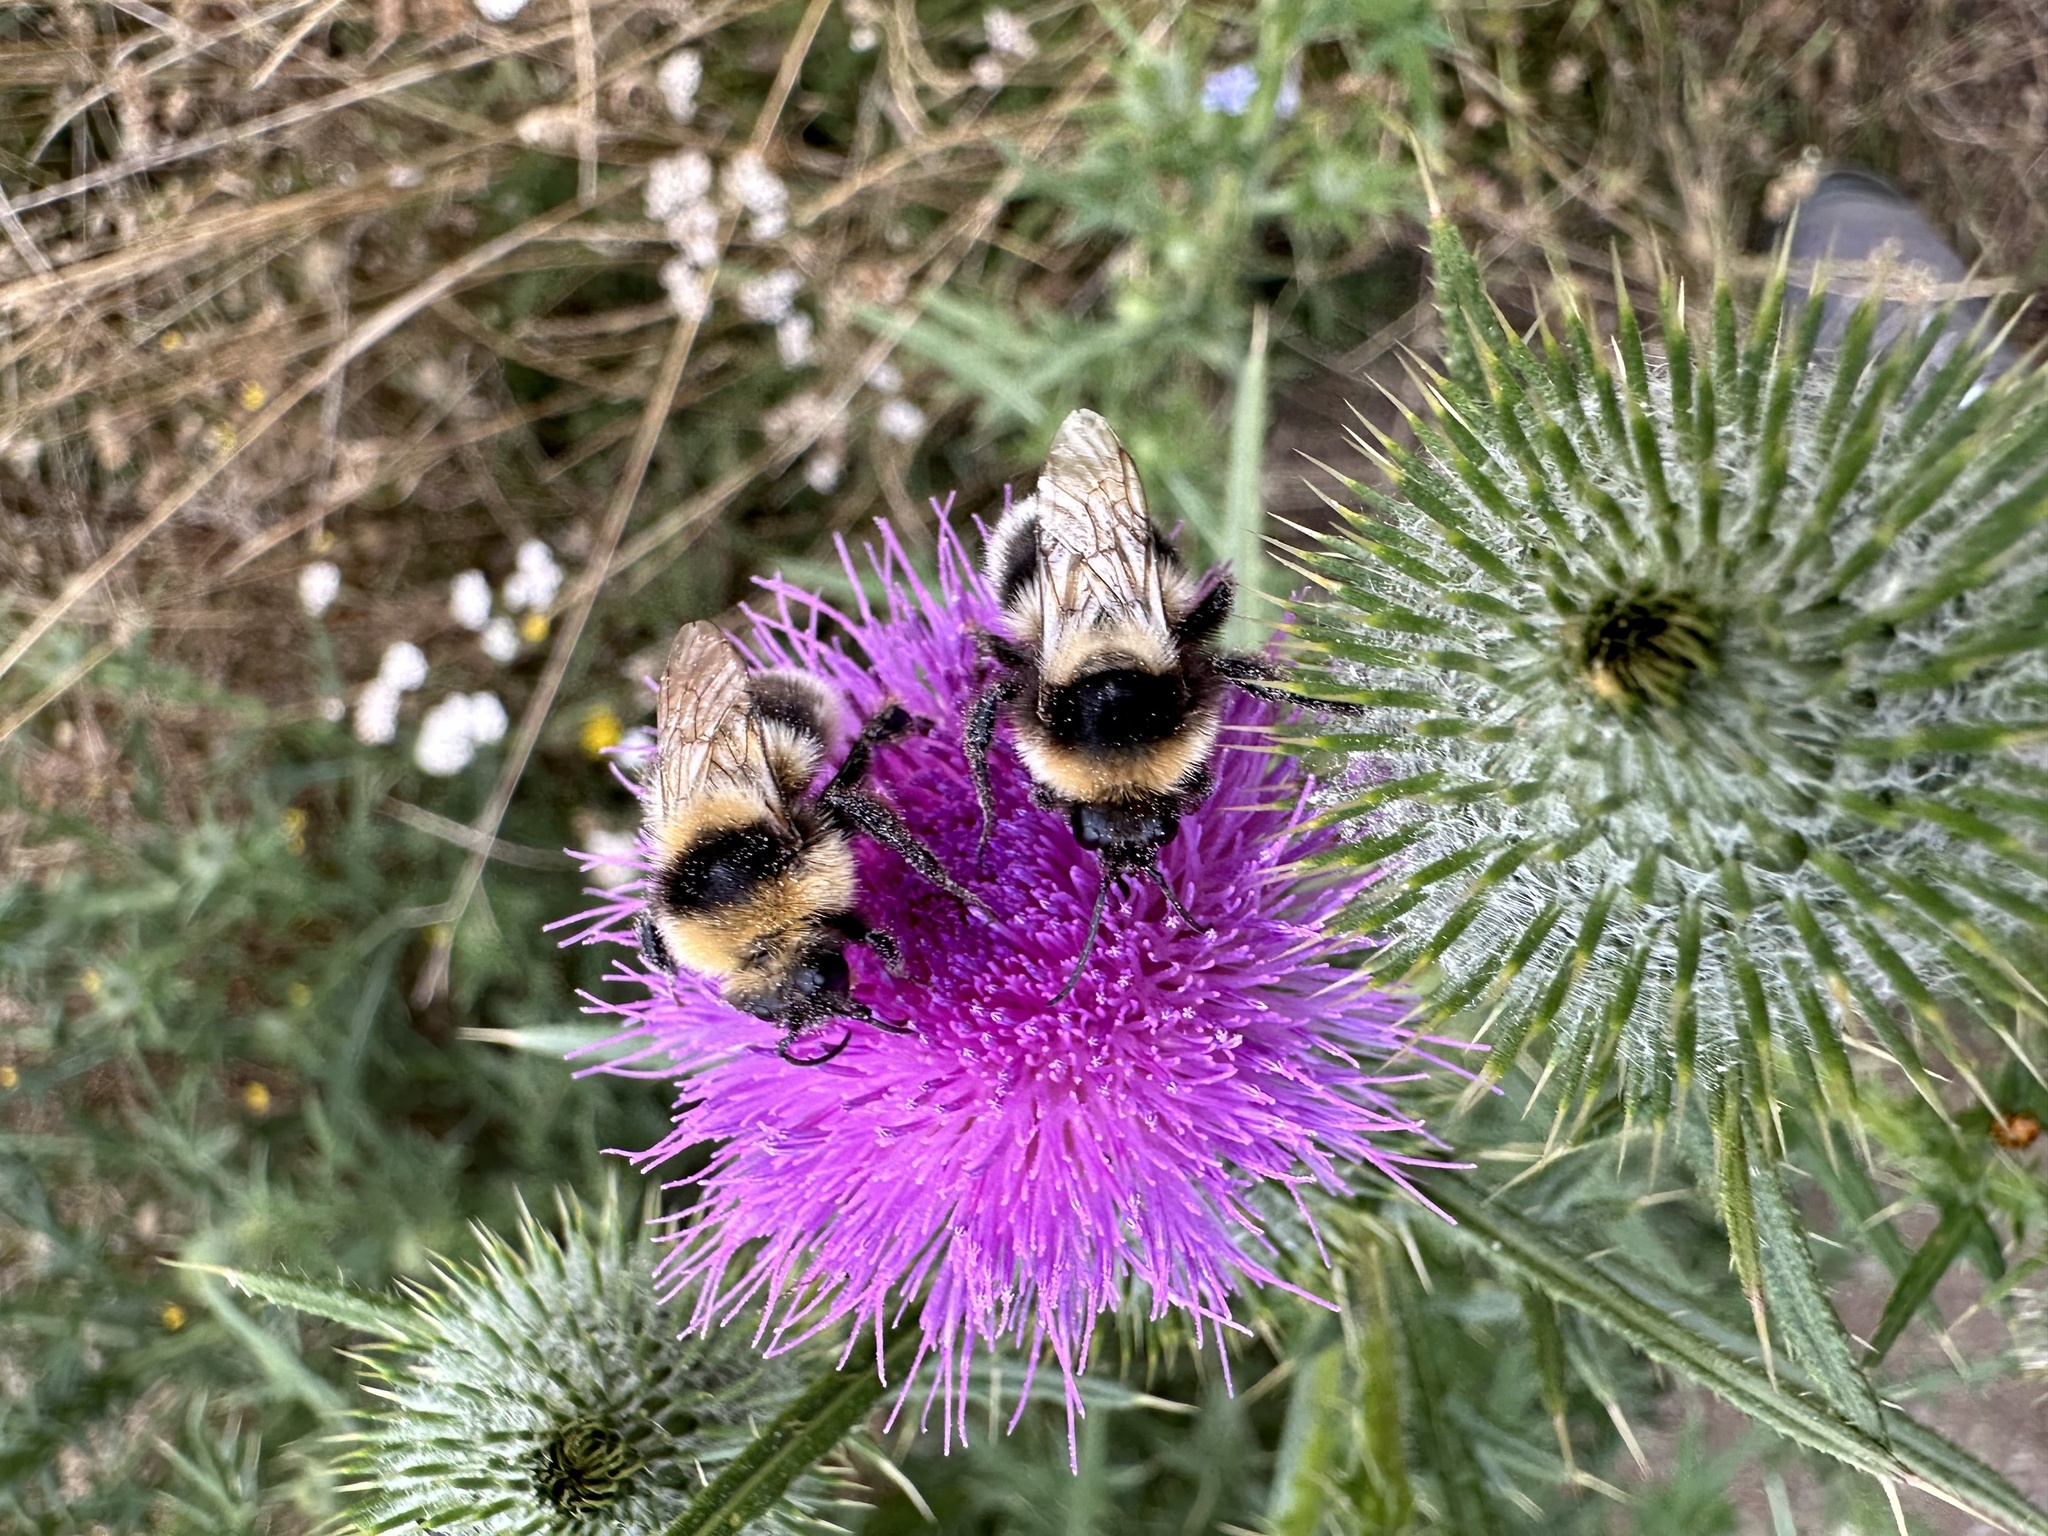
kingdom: Animalia
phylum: Arthropoda
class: Insecta
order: Hymenoptera
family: Apidae
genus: Bombus
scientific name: Bombus ruderatus
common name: Large garden bumblebee
